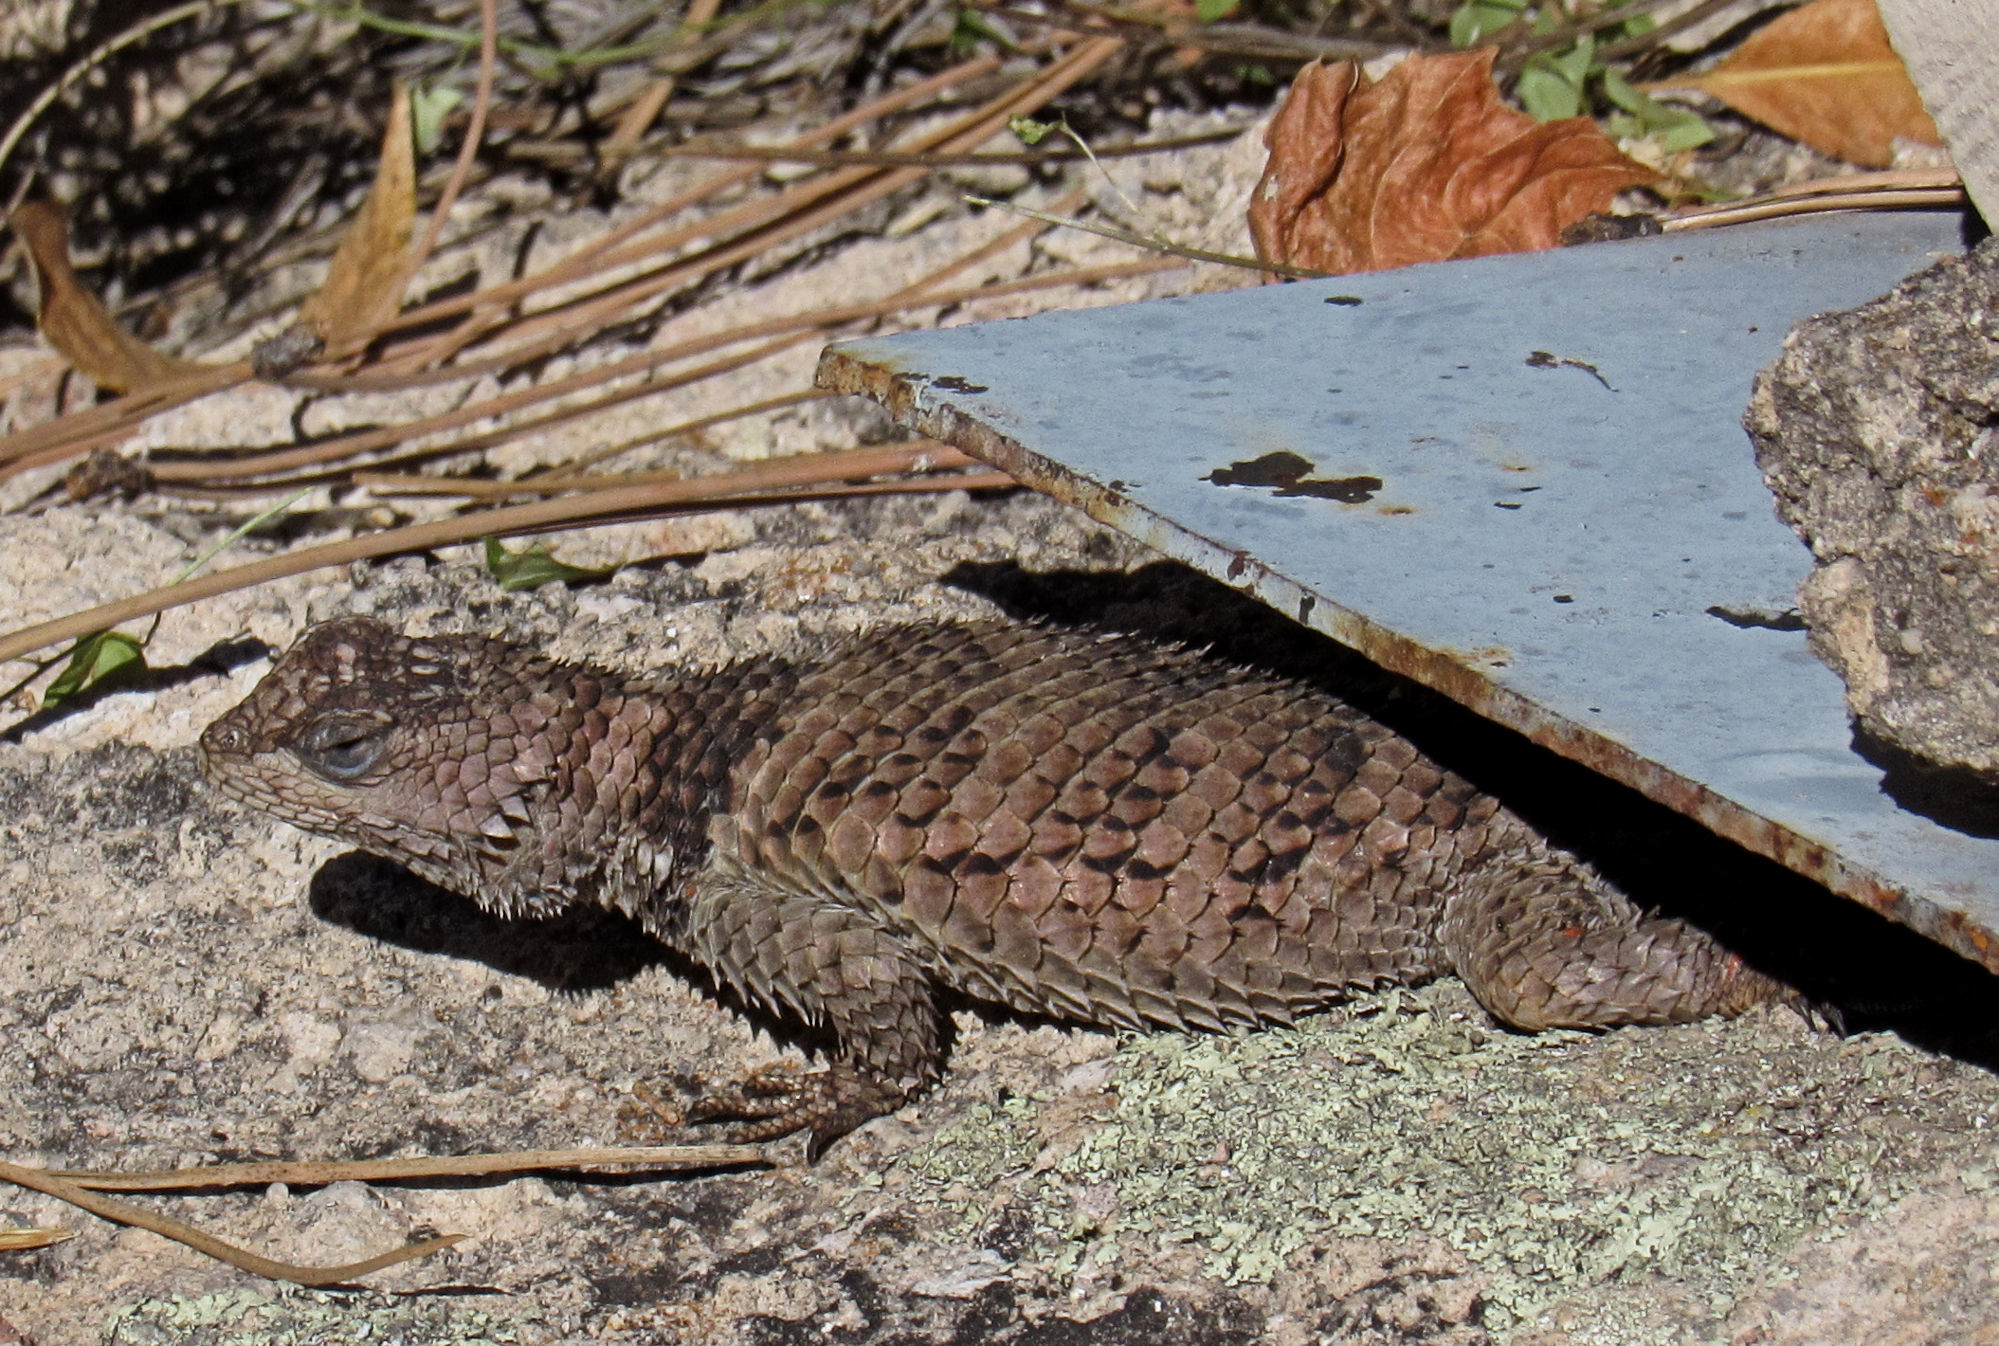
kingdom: Animalia
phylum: Chordata
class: Squamata
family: Phrynosomatidae
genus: Sceloporus
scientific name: Sceloporus poinsettii
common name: Crevice spiny lizard
